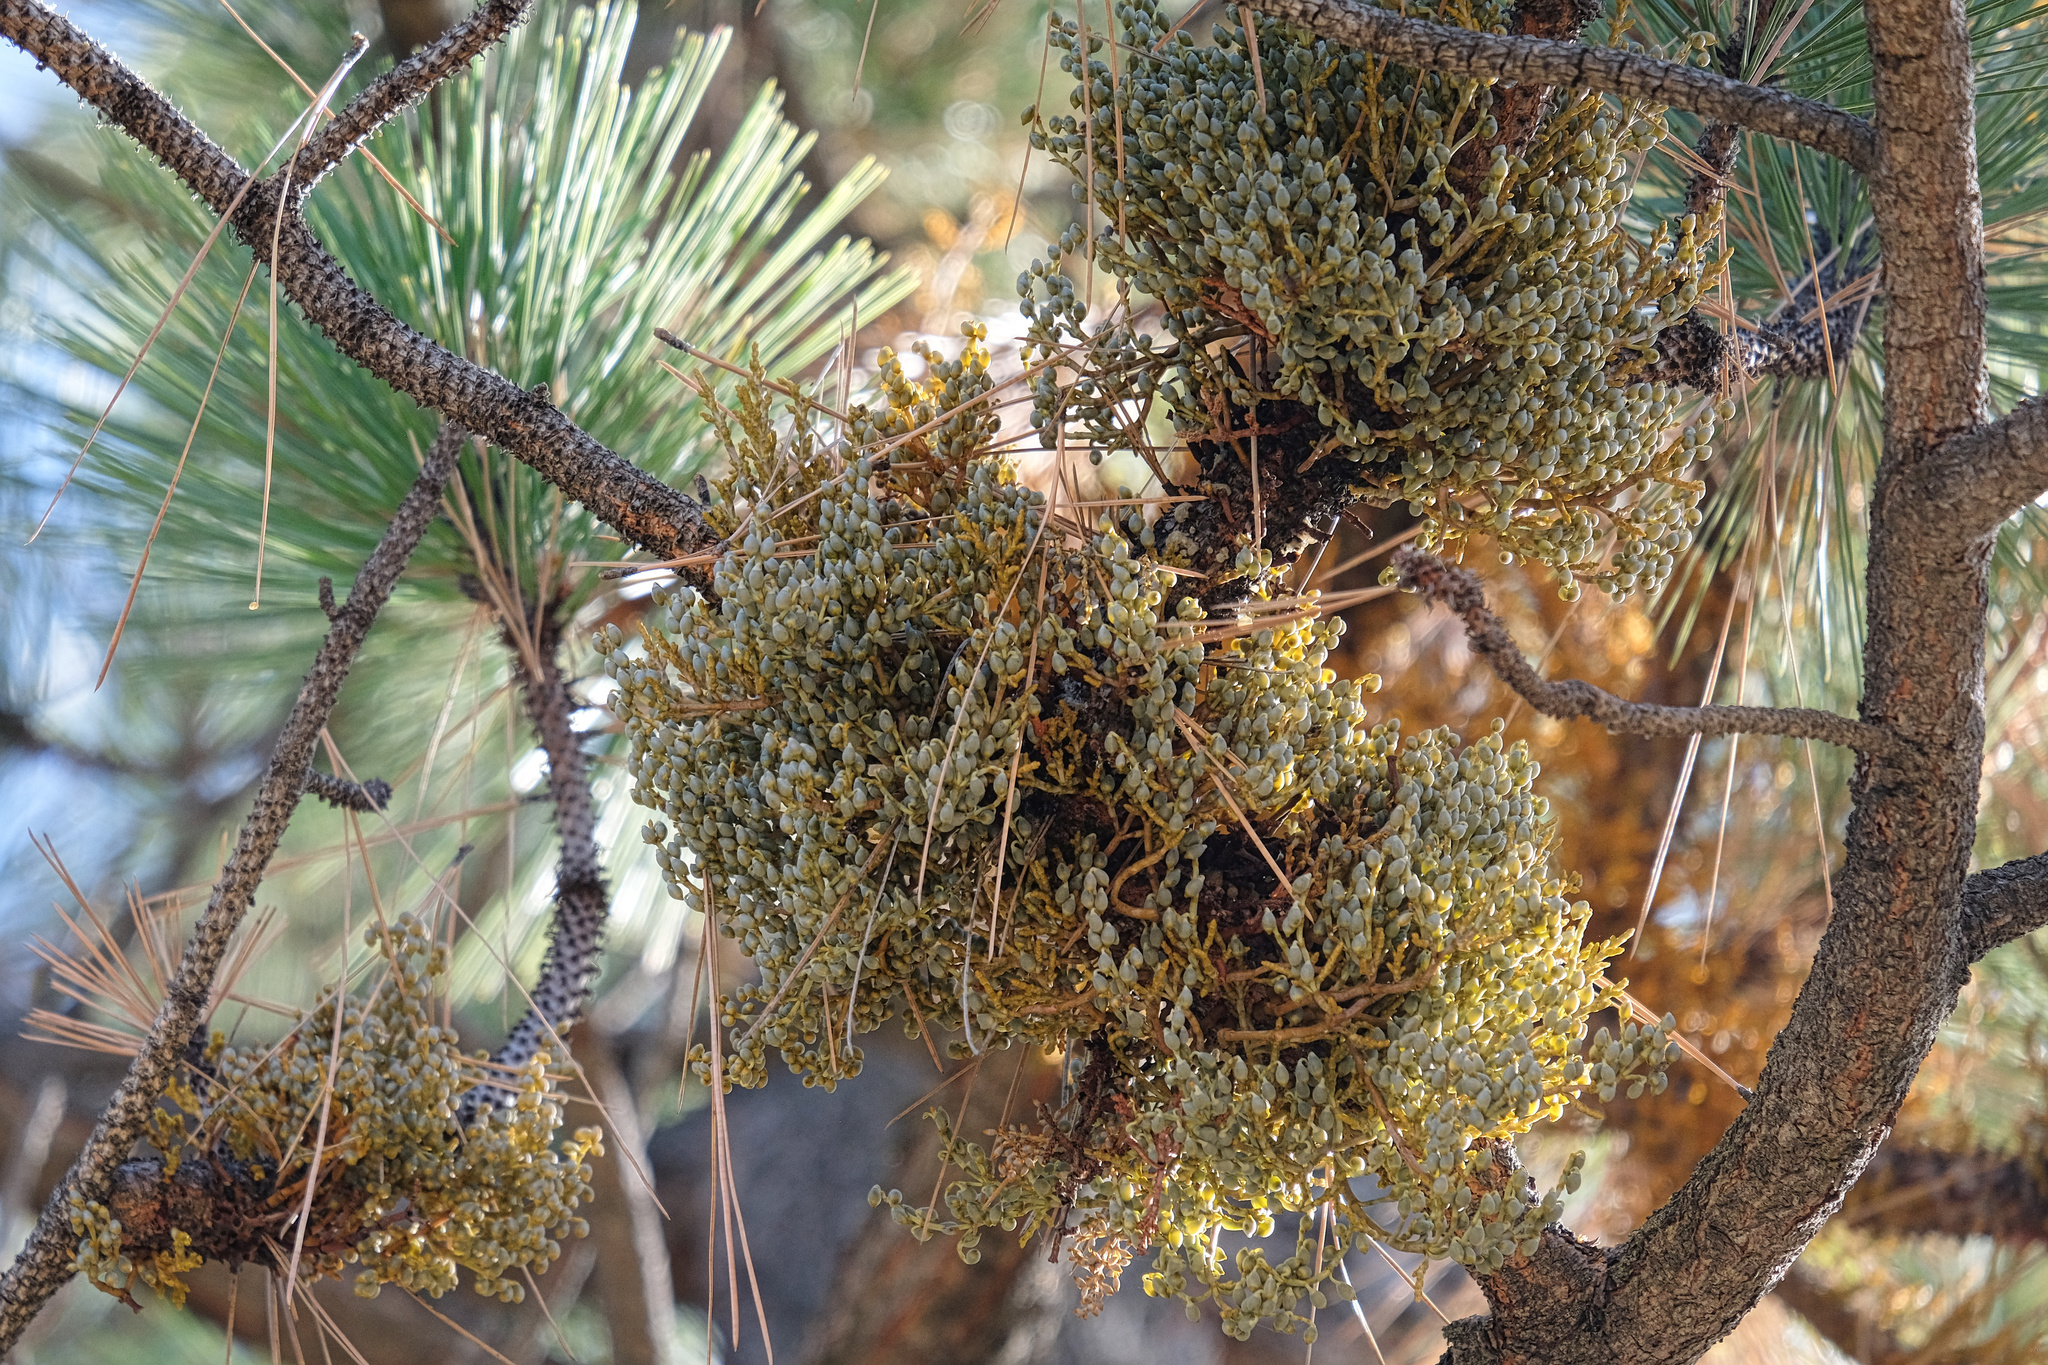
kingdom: Plantae
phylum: Tracheophyta
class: Magnoliopsida
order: Santalales
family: Viscaceae
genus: Arceuthobium
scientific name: Arceuthobium campylopodum
